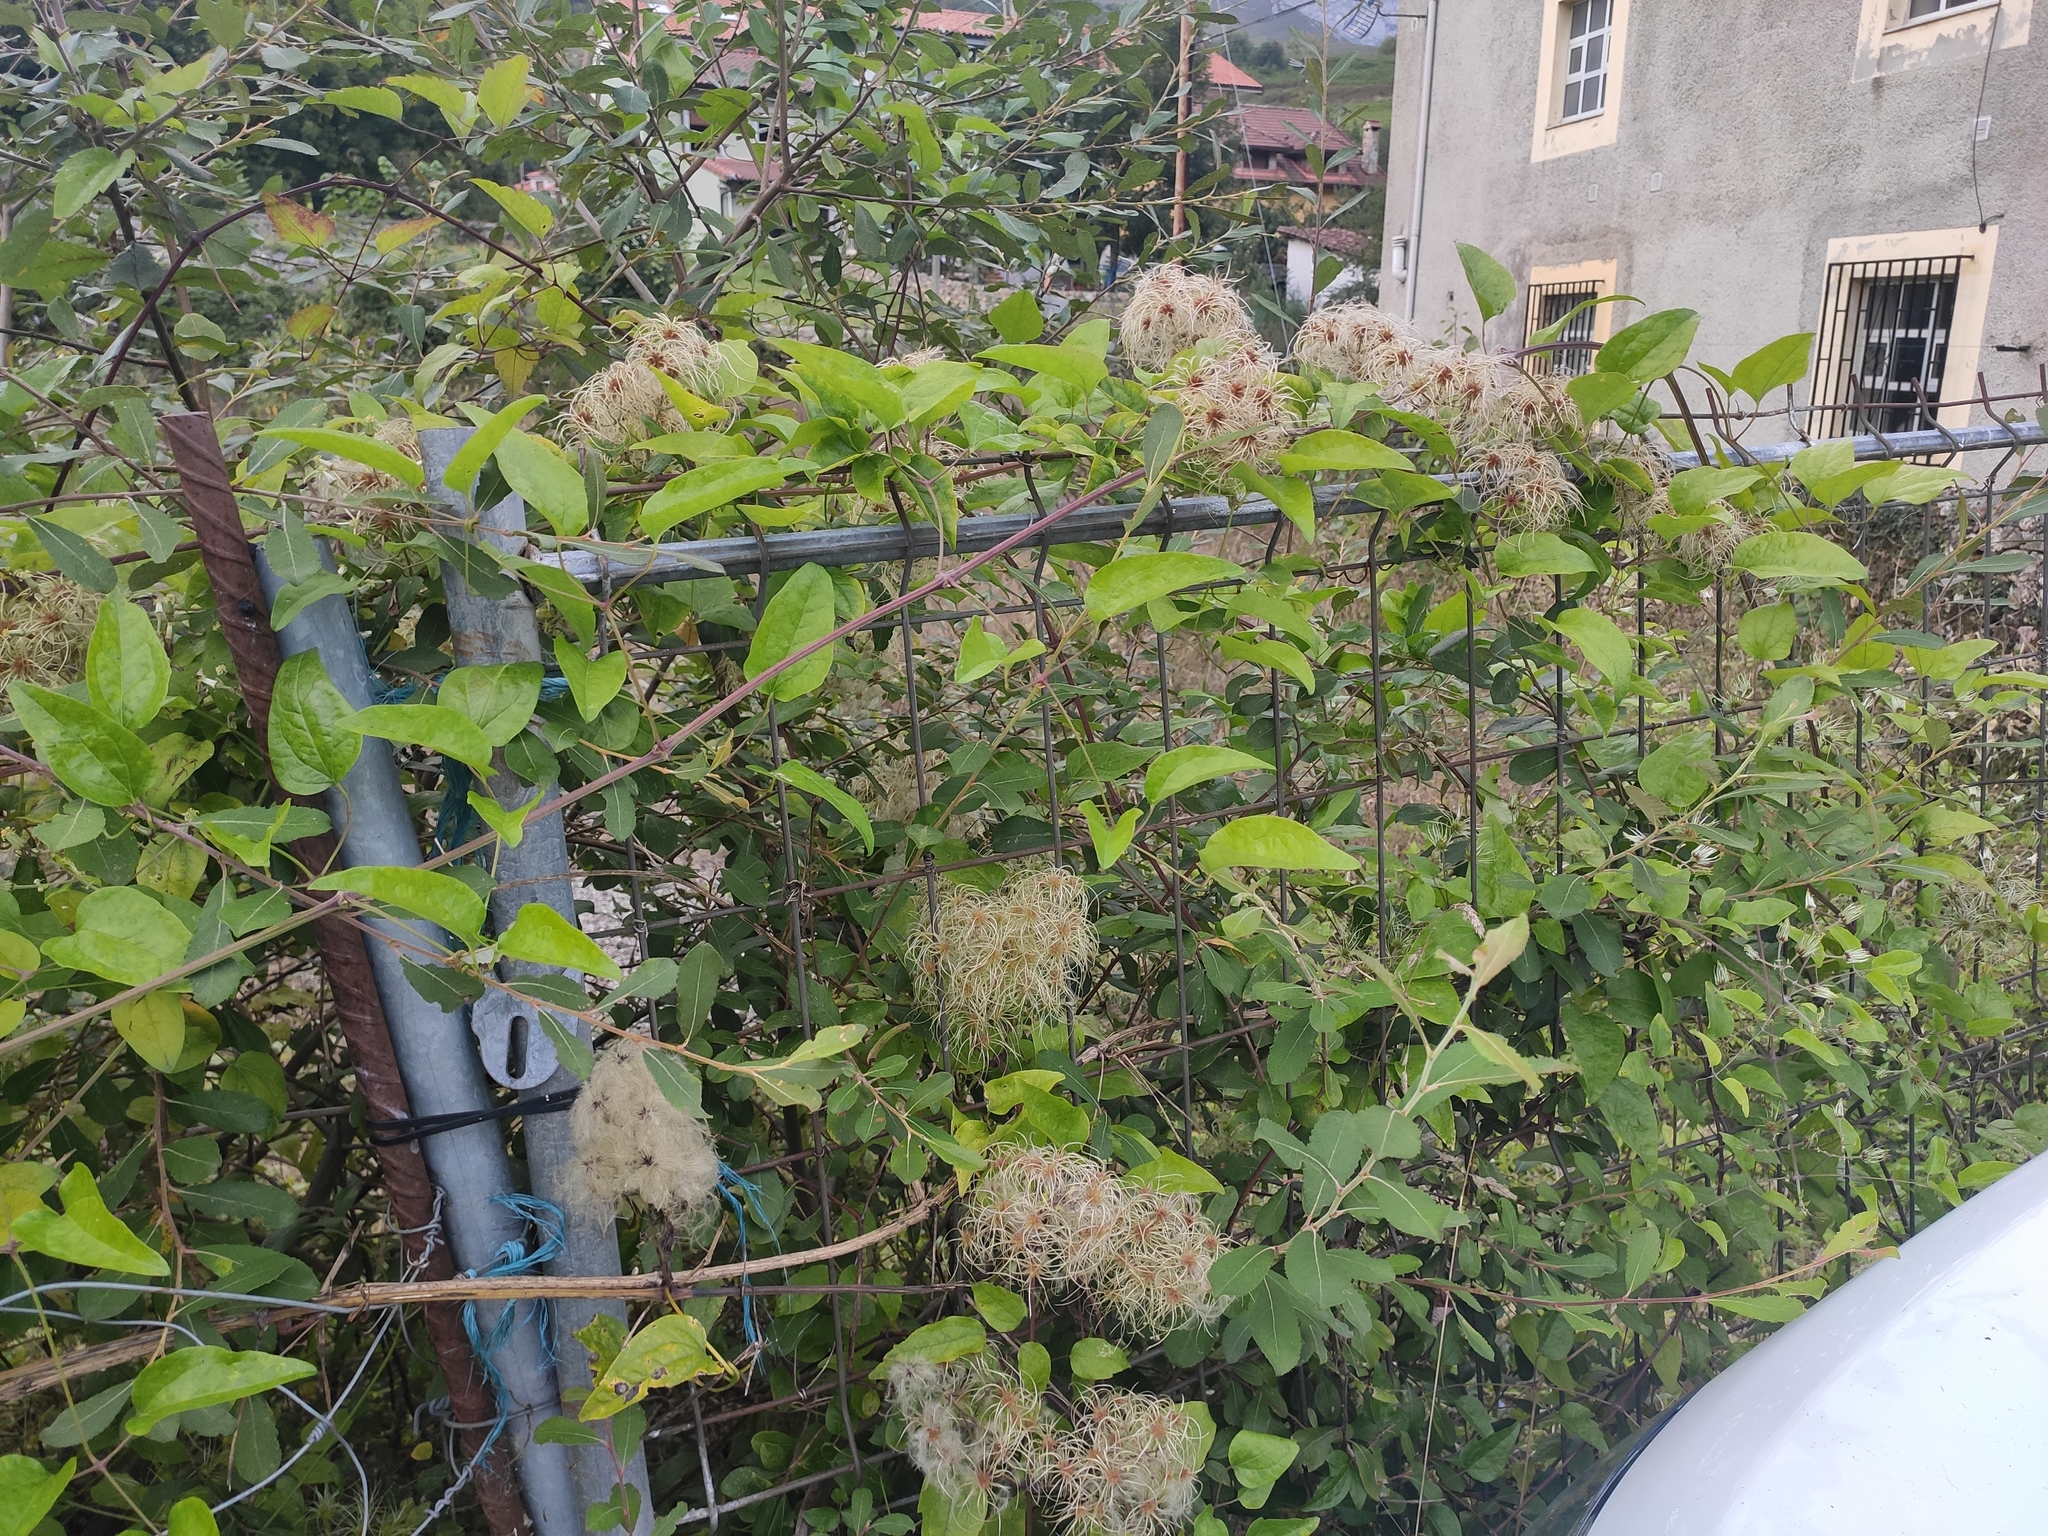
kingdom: Plantae
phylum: Tracheophyta
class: Magnoliopsida
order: Ranunculales
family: Ranunculaceae
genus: Clematis
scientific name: Clematis vitalba
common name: Evergreen clematis
